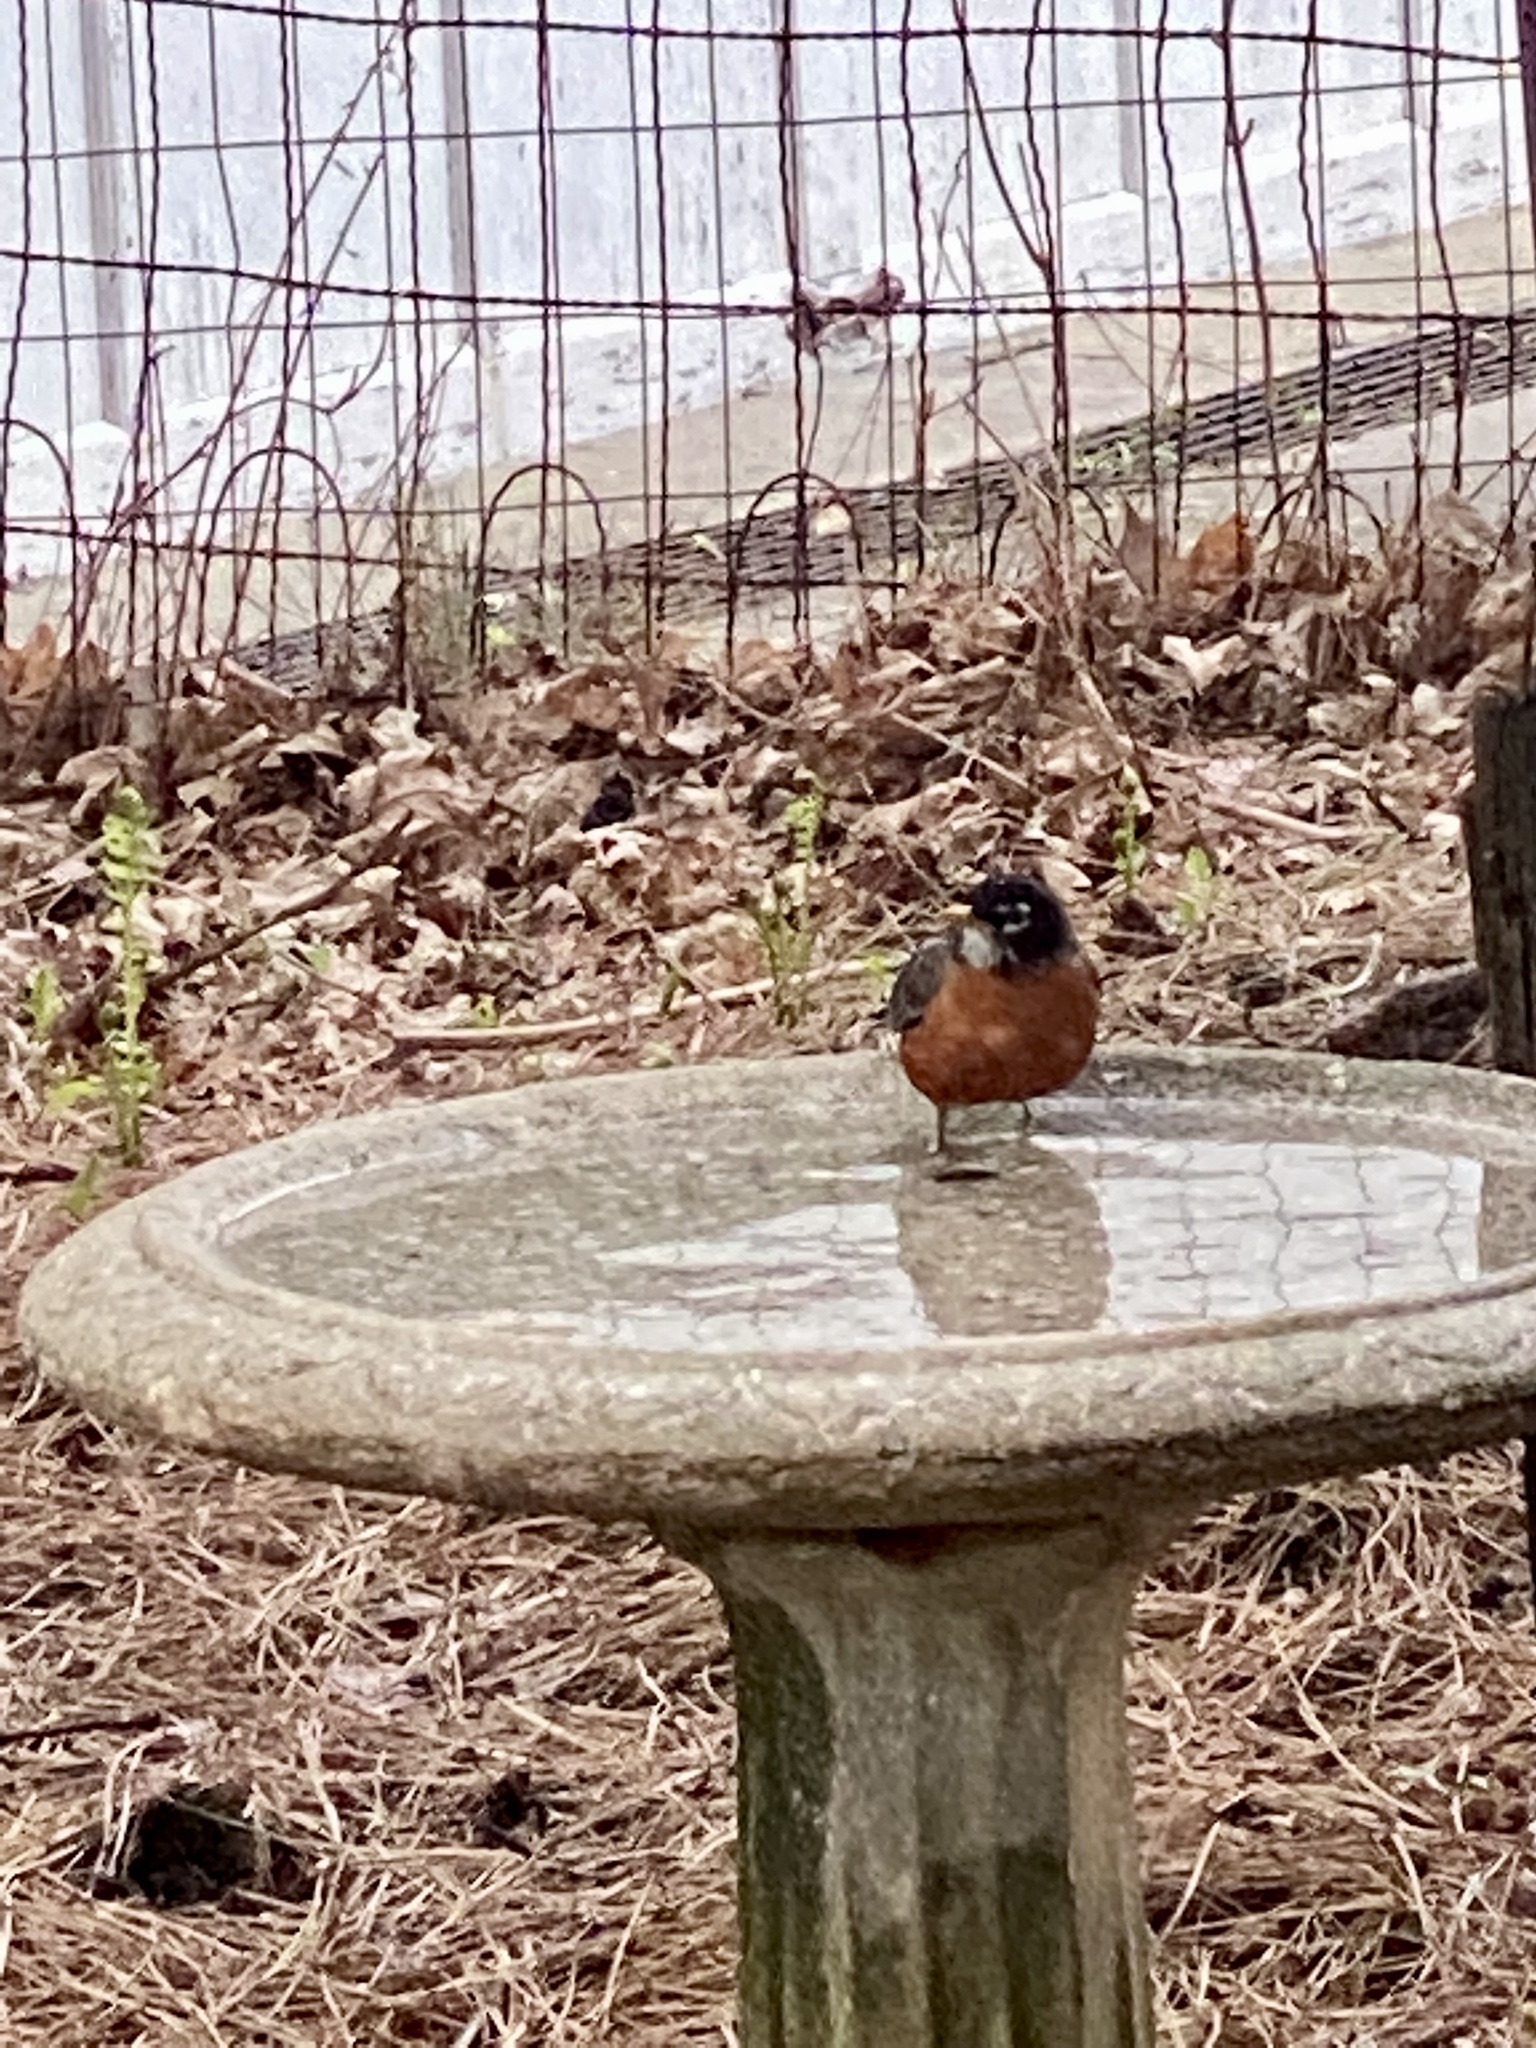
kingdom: Animalia
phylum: Chordata
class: Aves
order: Passeriformes
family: Turdidae
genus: Turdus
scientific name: Turdus migratorius
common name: American robin
